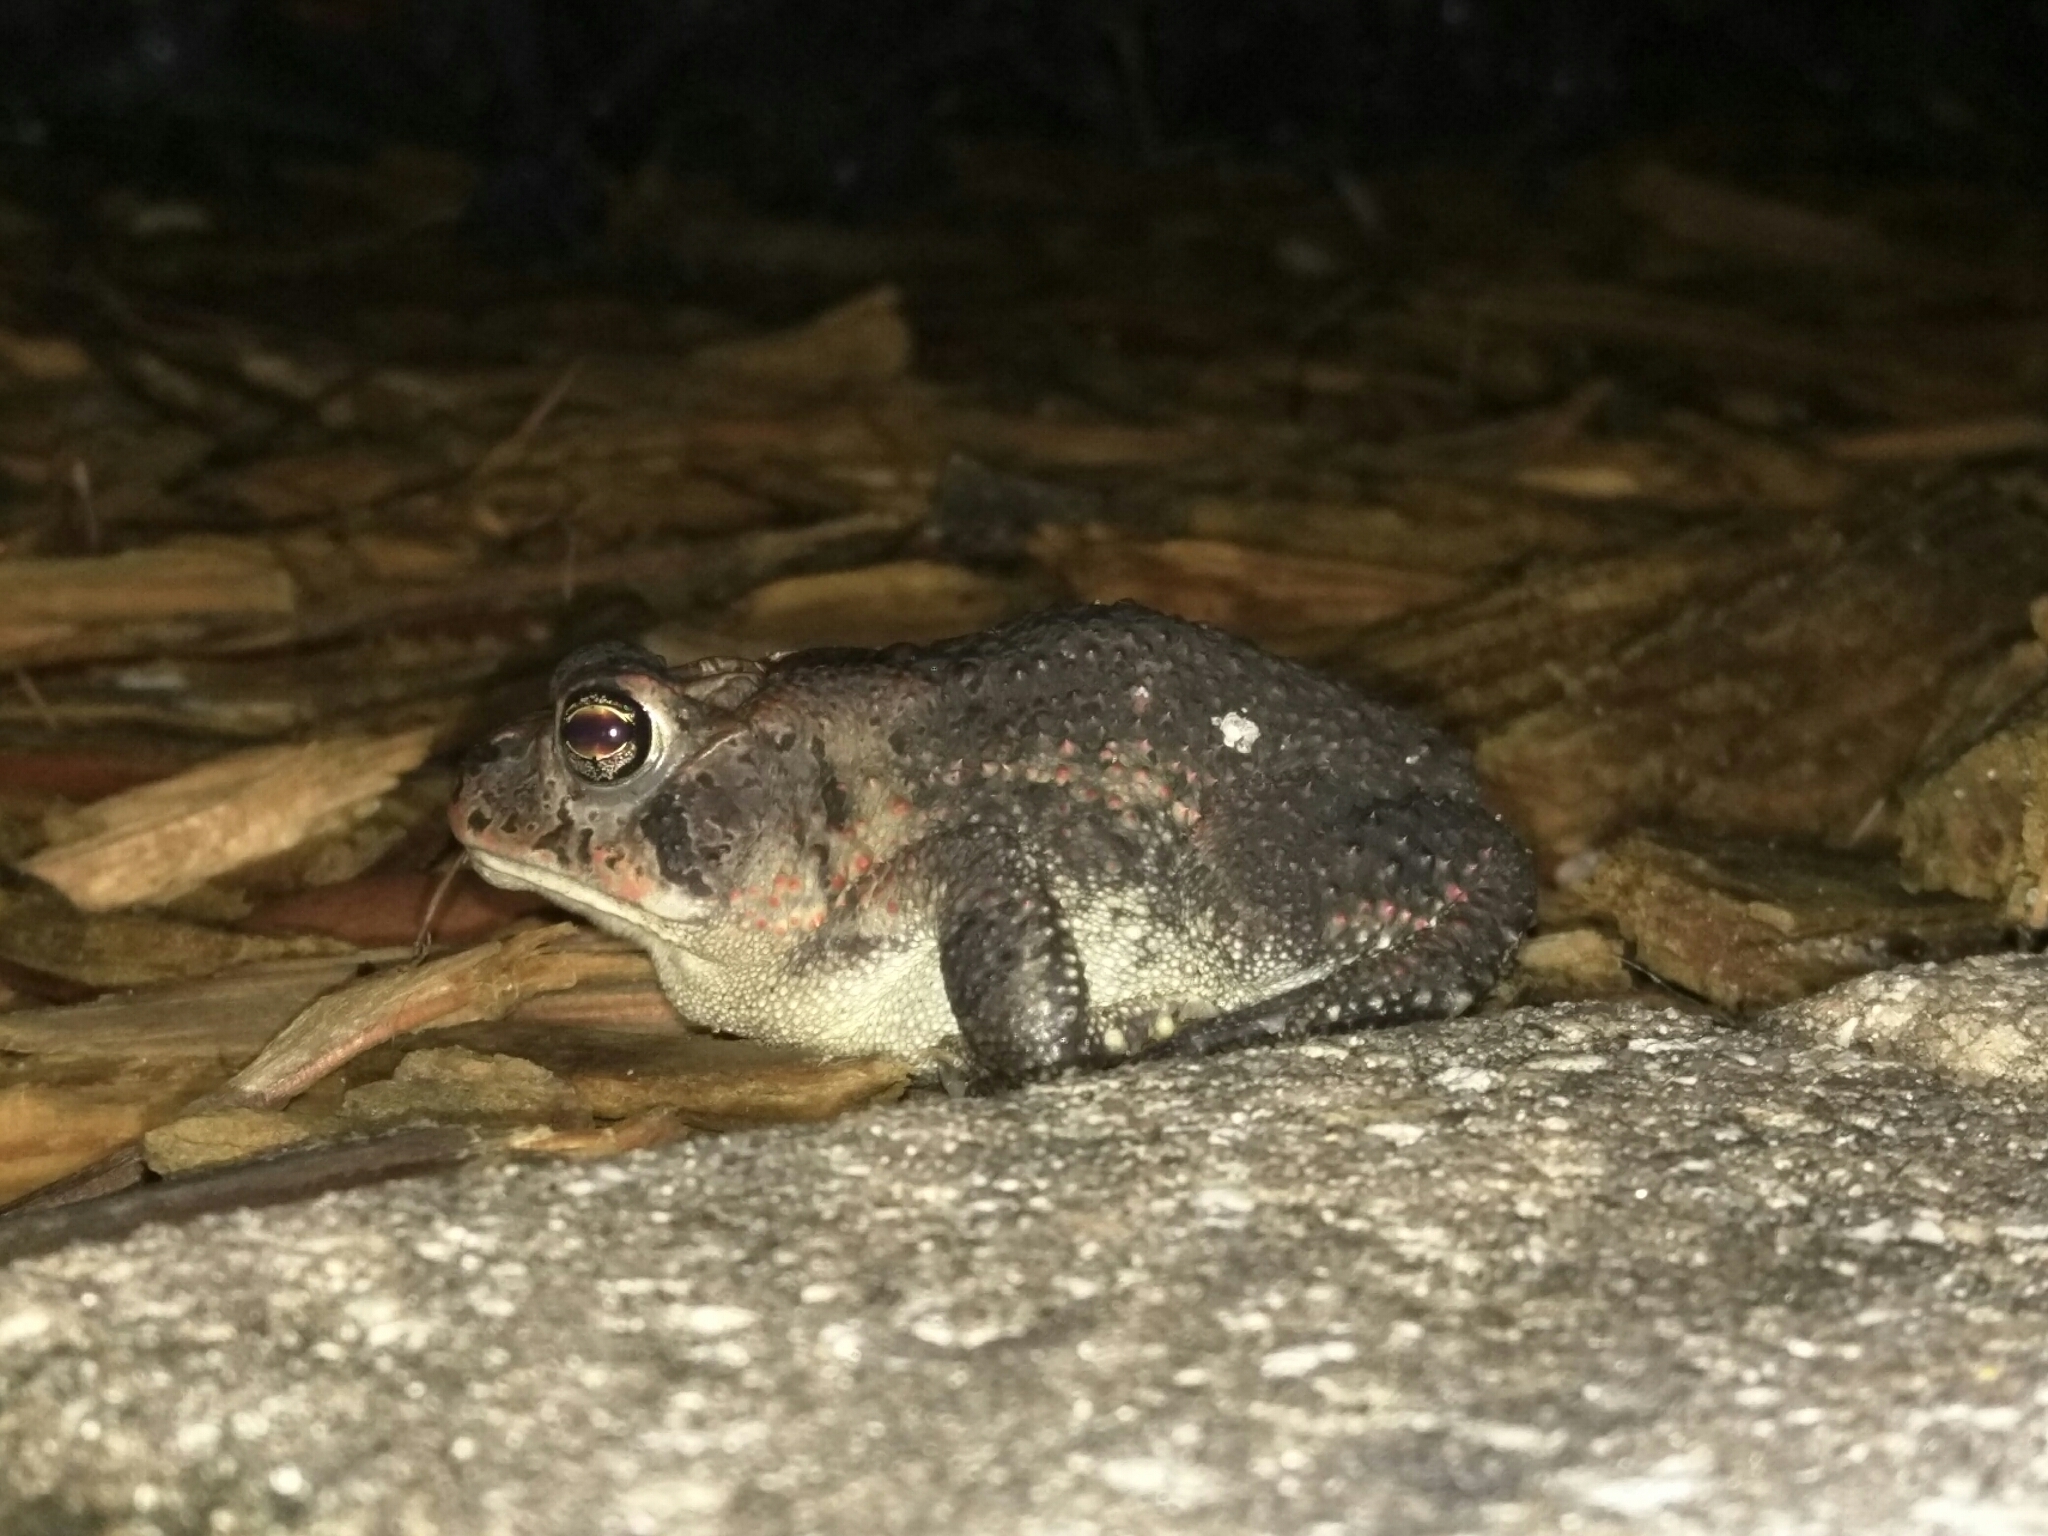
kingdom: Animalia
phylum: Chordata
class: Amphibia
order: Anura
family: Bufonidae
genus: Anaxyrus
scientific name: Anaxyrus terrestris
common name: Southern toad
